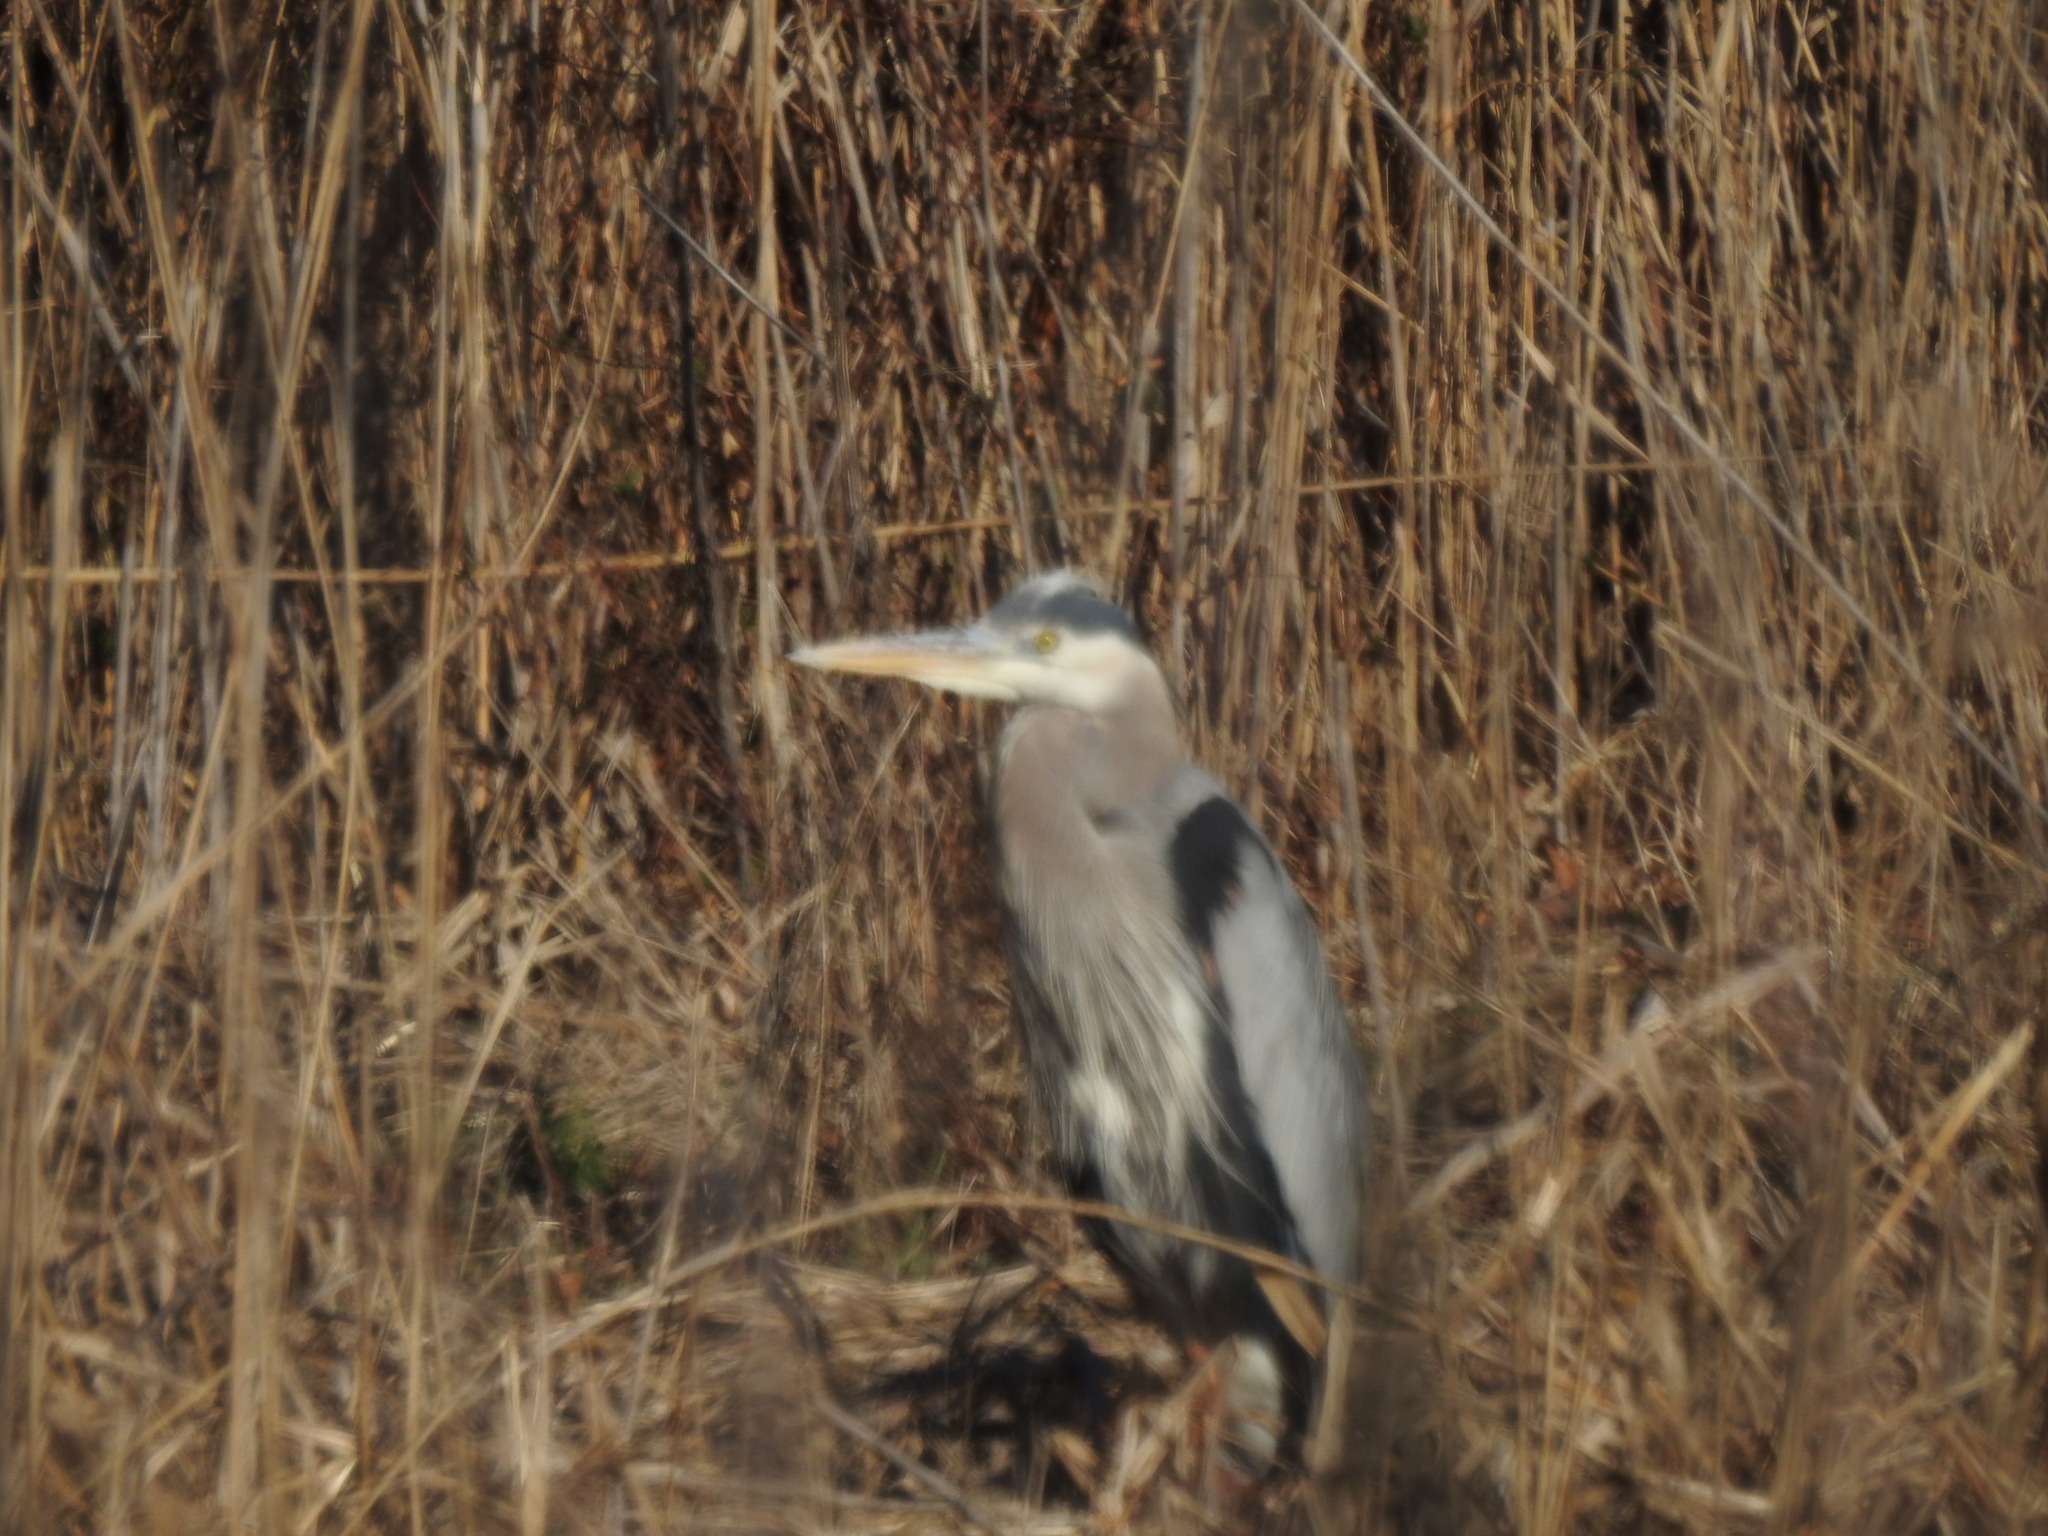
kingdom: Animalia
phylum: Chordata
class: Aves
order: Pelecaniformes
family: Ardeidae
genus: Ardea
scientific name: Ardea herodias
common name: Great blue heron
